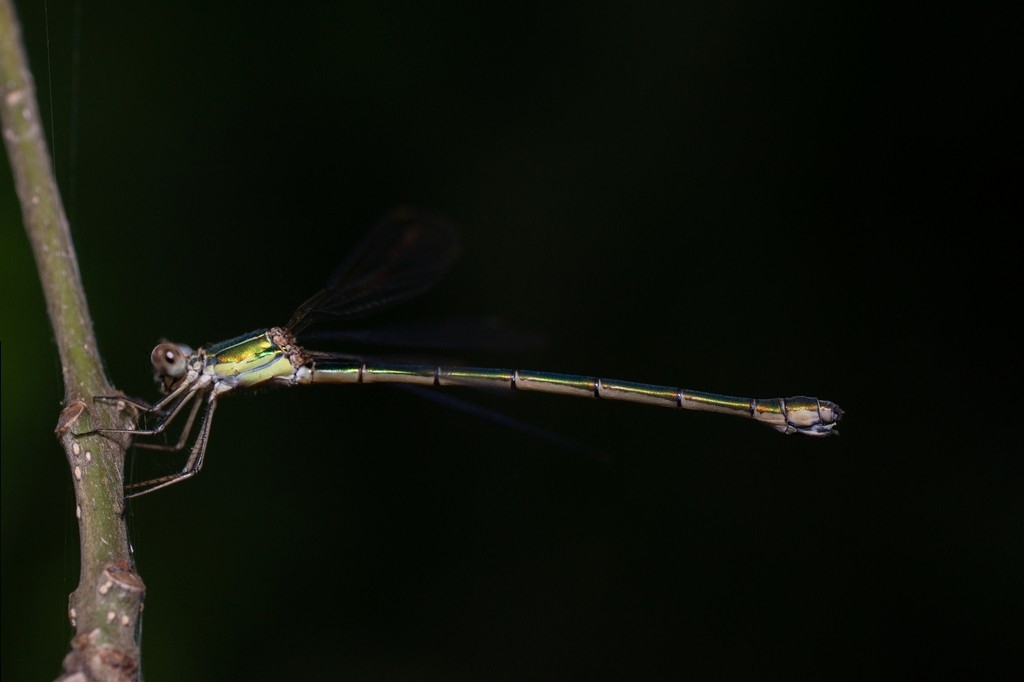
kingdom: Animalia
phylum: Arthropoda
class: Insecta
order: Odonata
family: Lestidae
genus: Chalcolestes
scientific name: Chalcolestes viridis
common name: Green emerald damselfly
